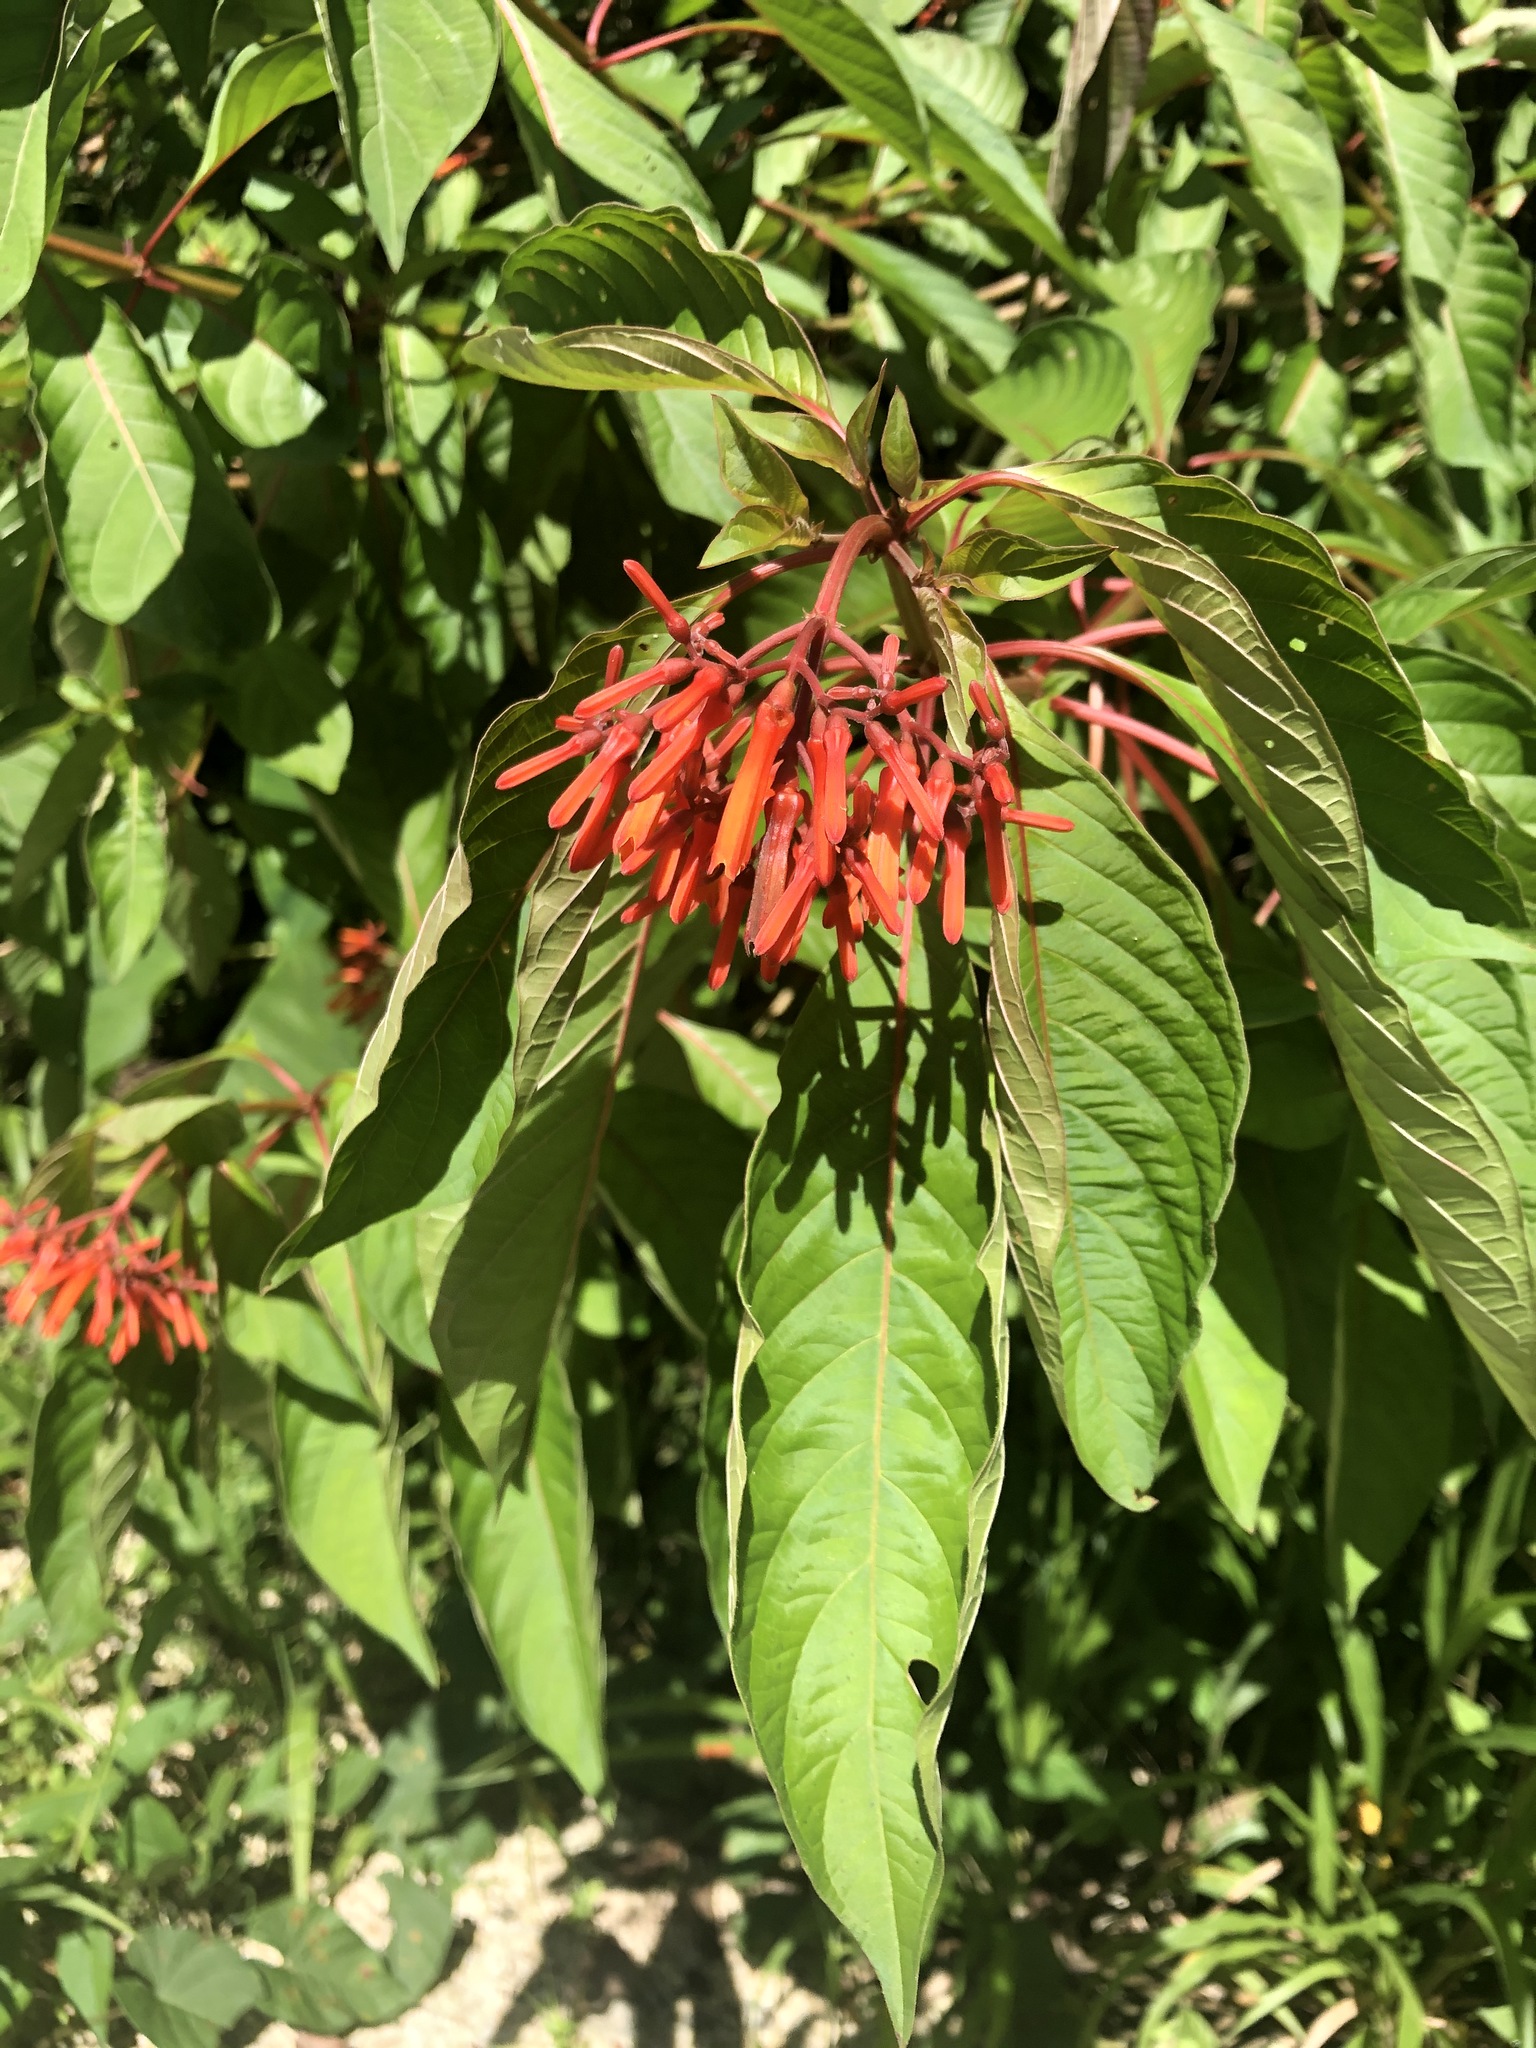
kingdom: Plantae
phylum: Tracheophyta
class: Magnoliopsida
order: Gentianales
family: Rubiaceae
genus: Hamelia
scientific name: Hamelia patens
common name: Redhead
